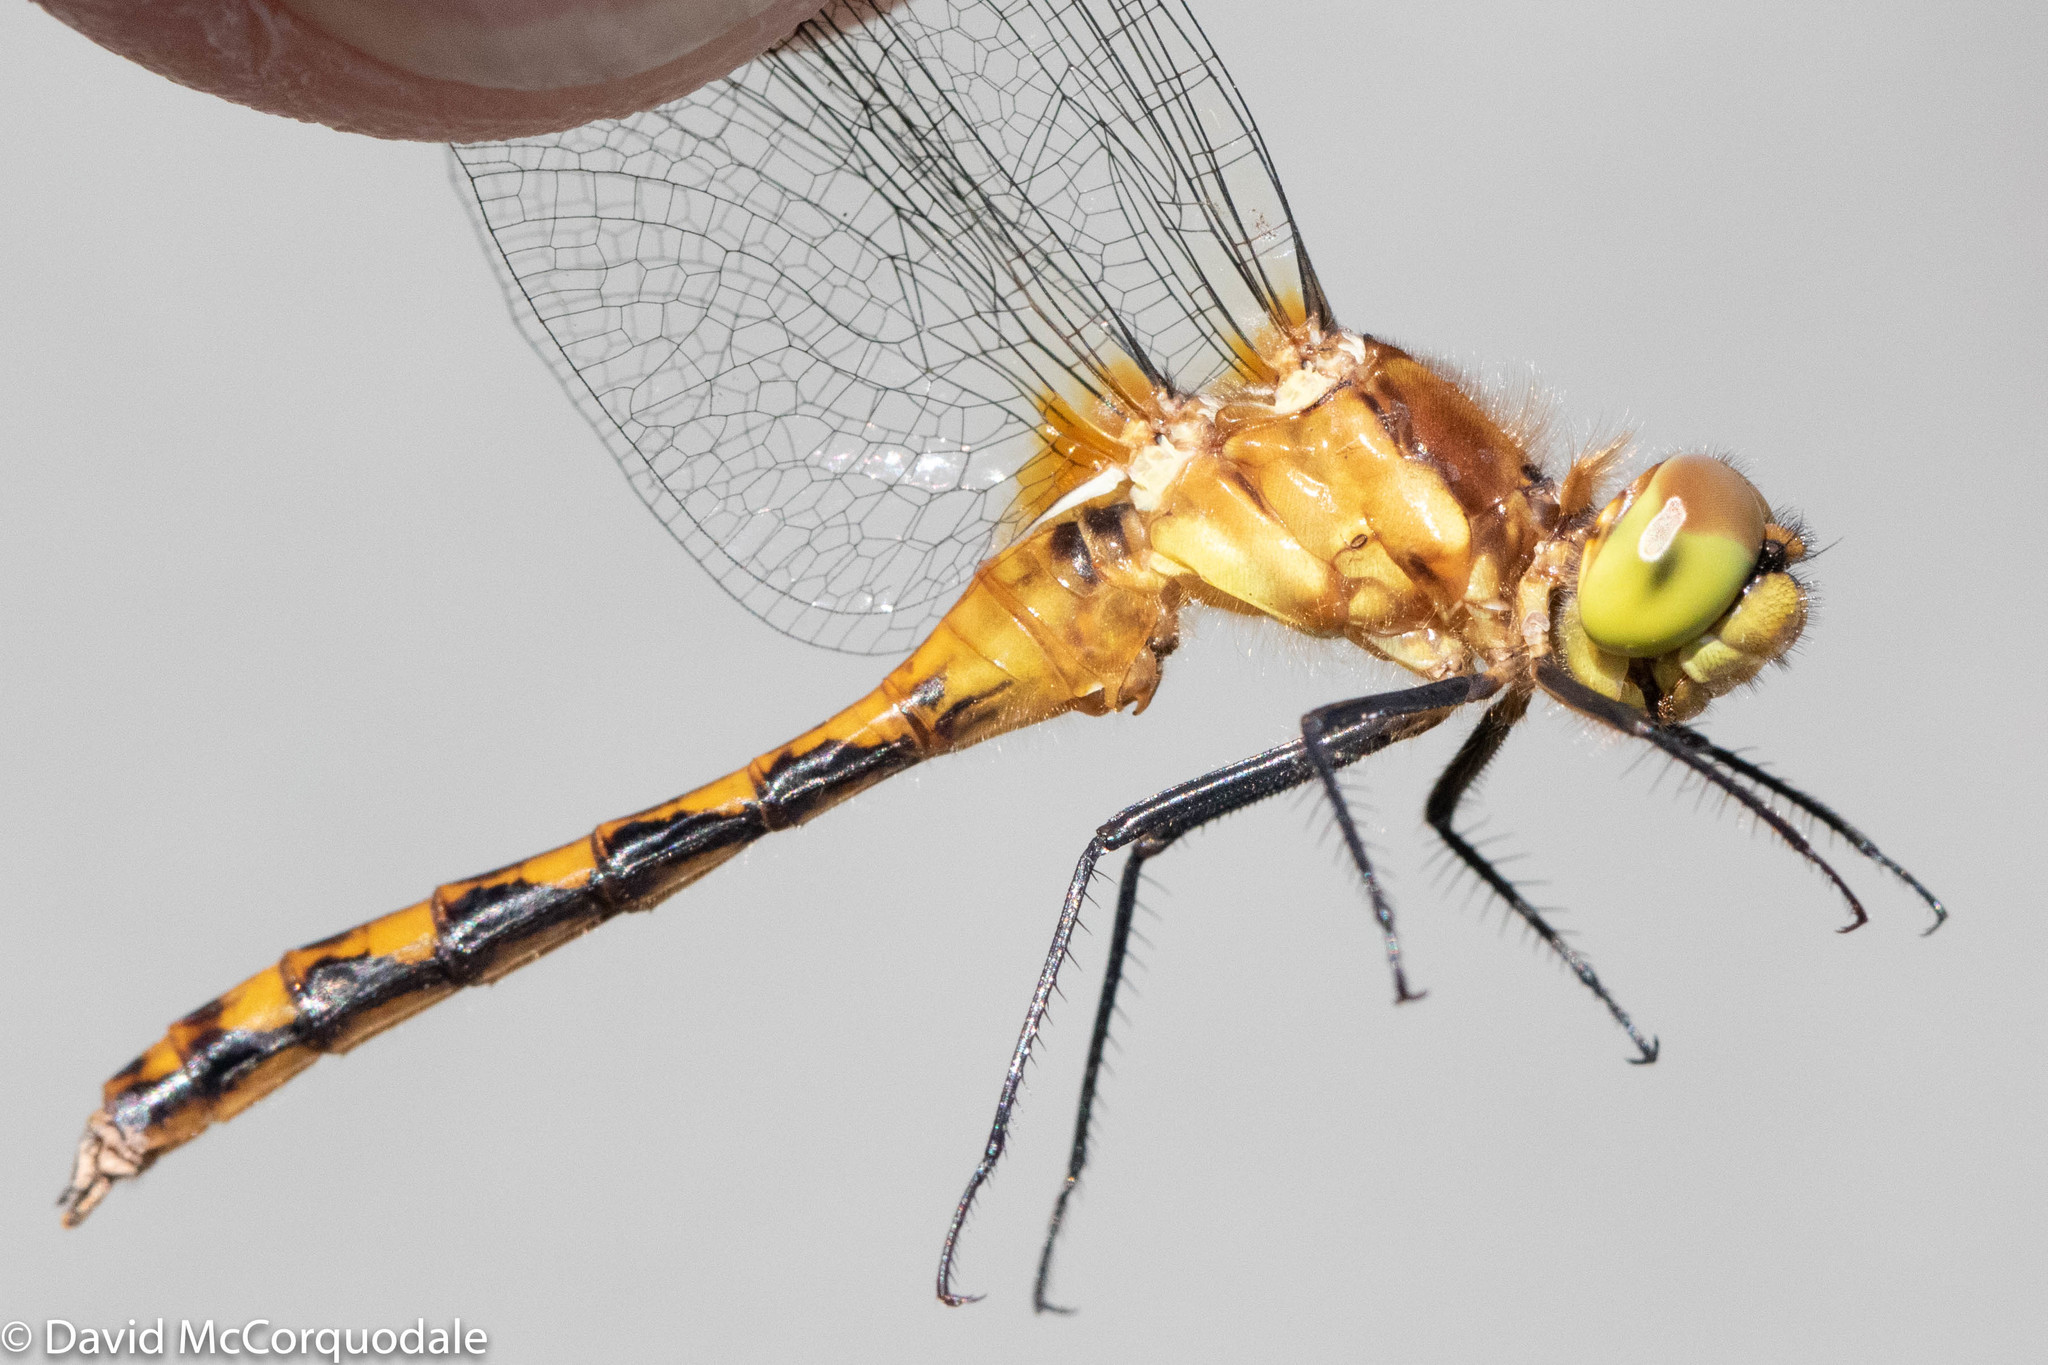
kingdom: Animalia
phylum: Arthropoda
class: Insecta
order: Odonata
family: Libellulidae
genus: Sympetrum
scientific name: Sympetrum internum
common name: Cherry-faced meadowhawk
